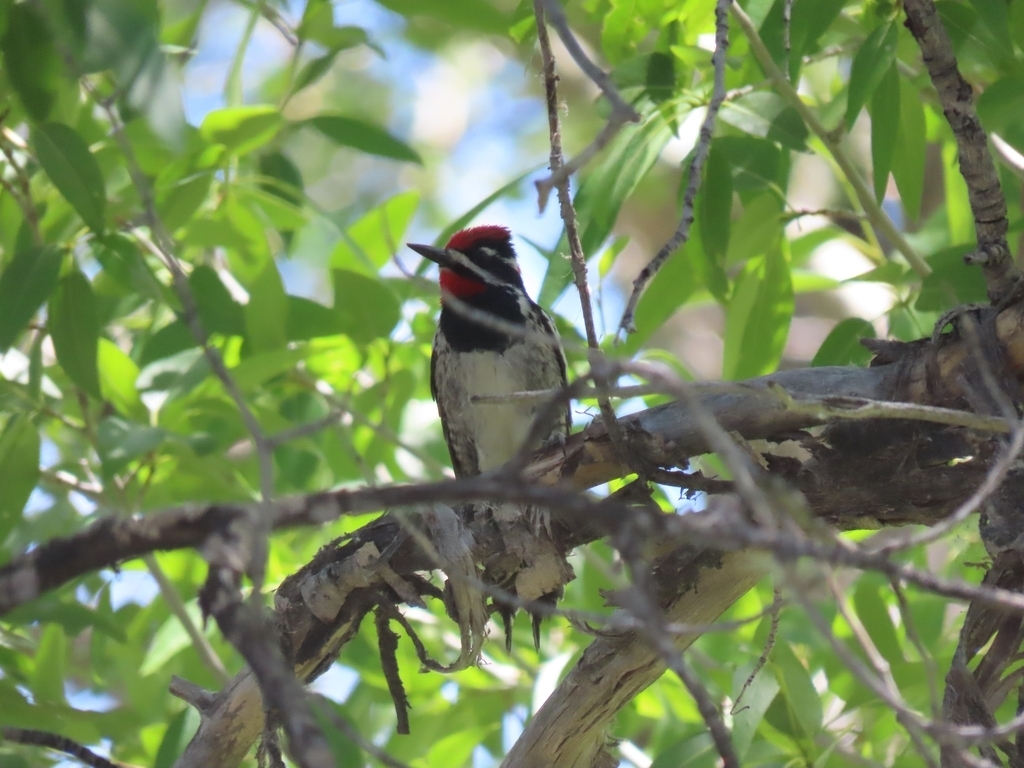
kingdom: Animalia
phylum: Chordata
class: Aves
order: Piciformes
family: Picidae
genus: Sphyrapicus
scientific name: Sphyrapicus nuchalis
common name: Red-naped sapsucker
